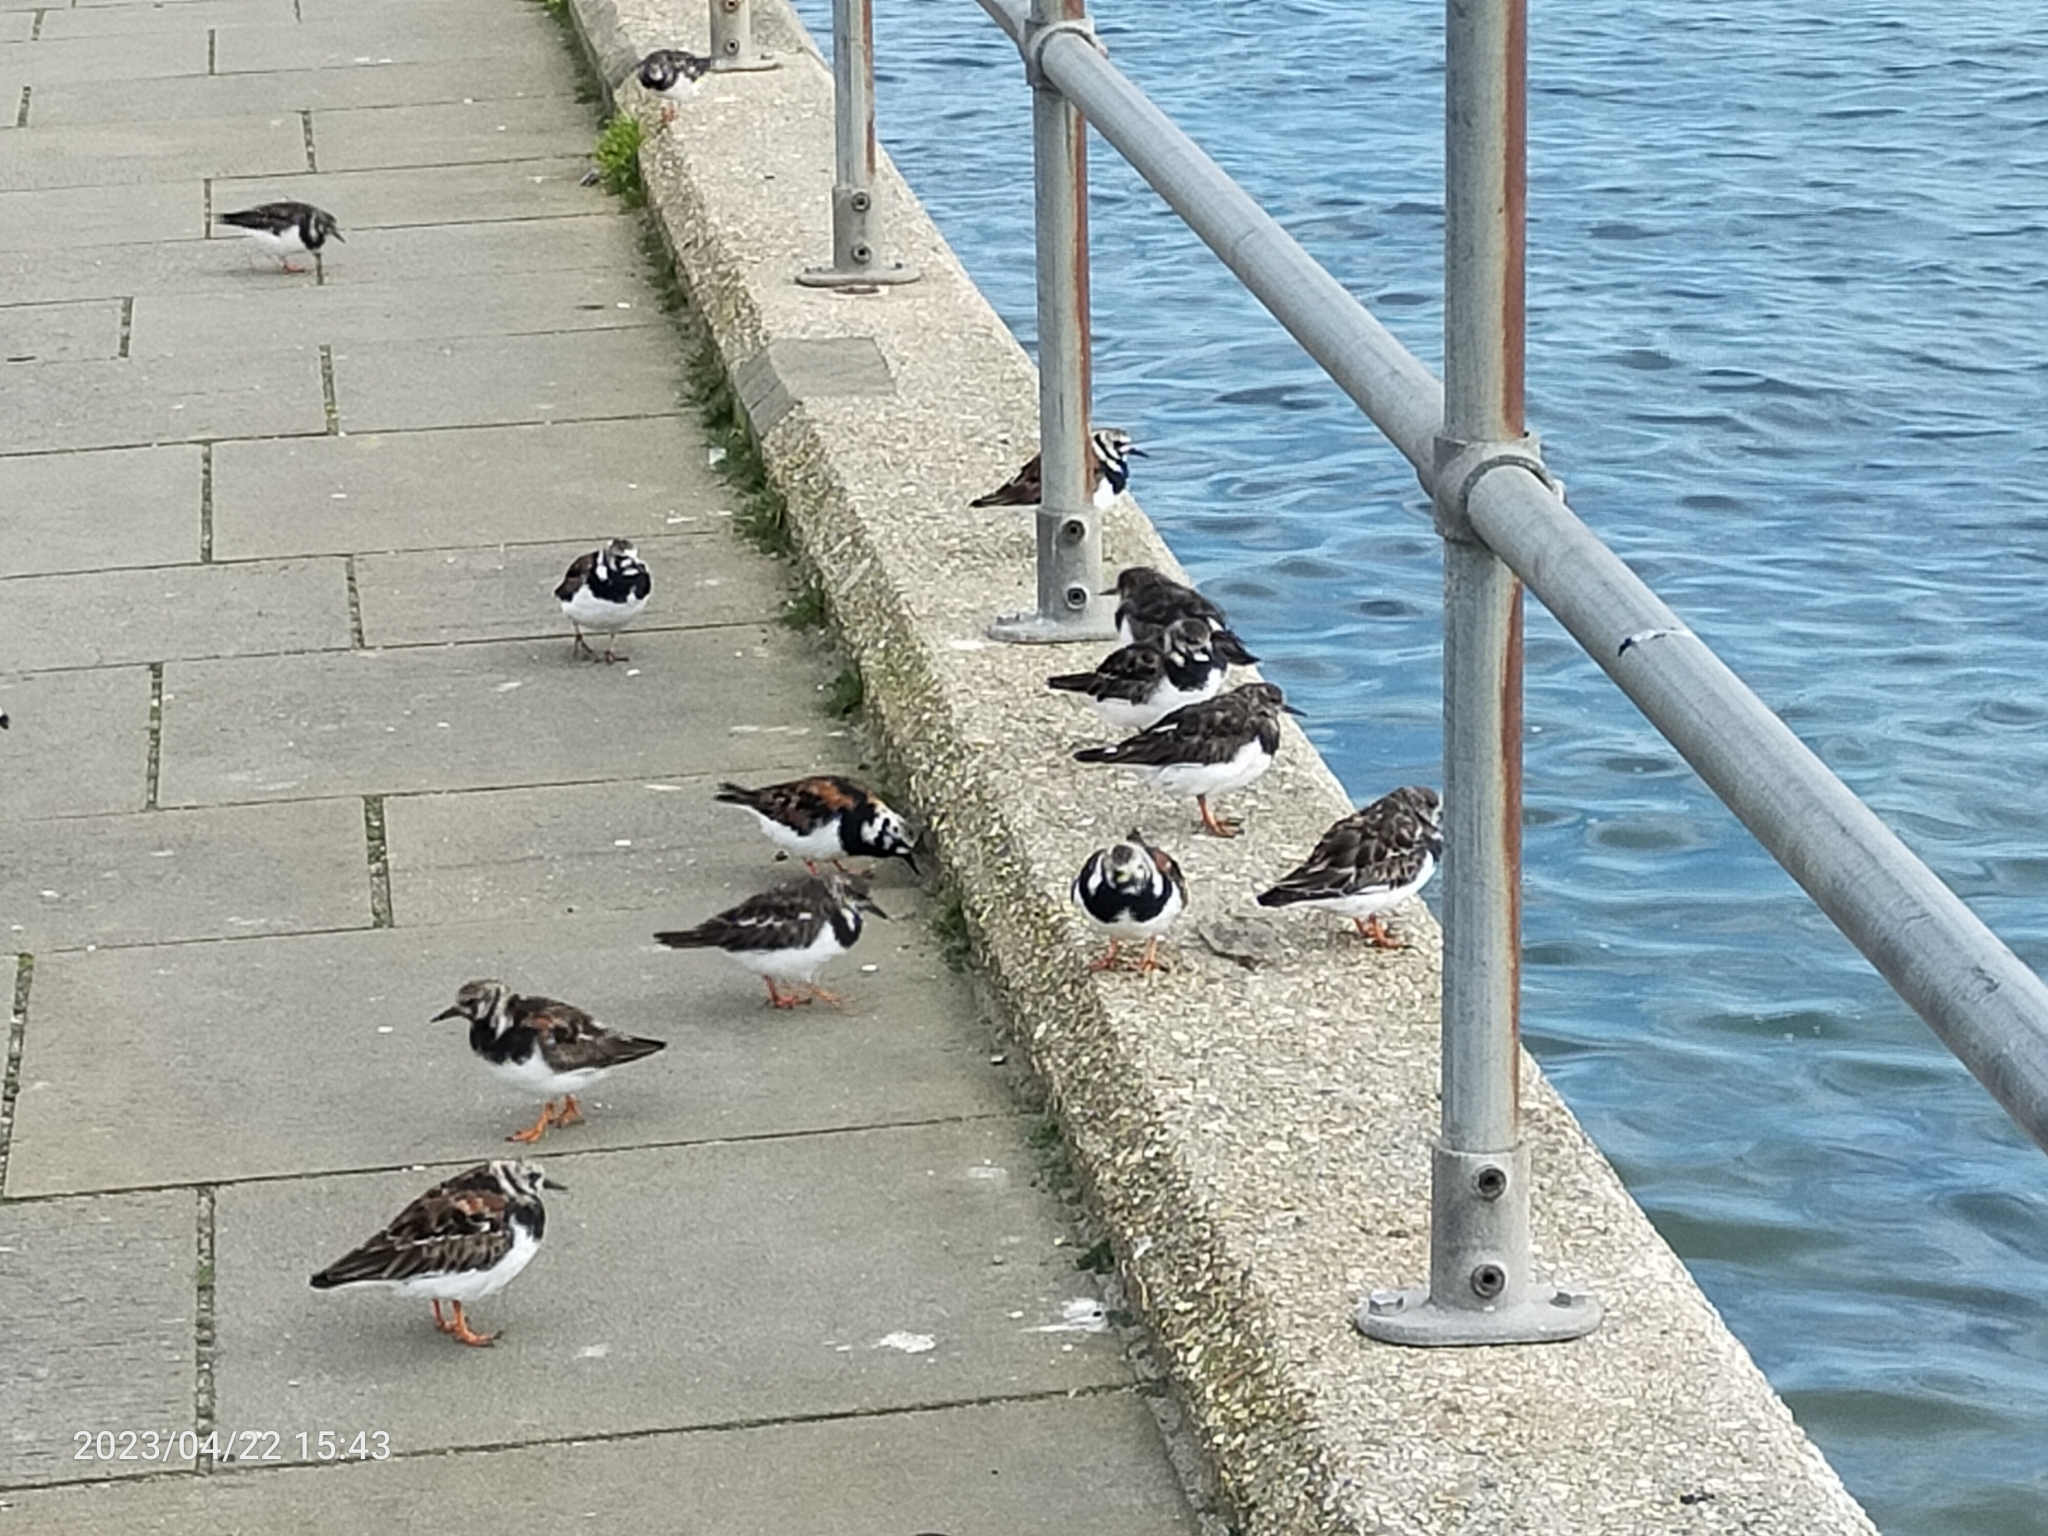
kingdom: Animalia
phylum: Chordata
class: Aves
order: Charadriiformes
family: Scolopacidae
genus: Arenaria
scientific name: Arenaria interpres
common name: Ruddy turnstone
